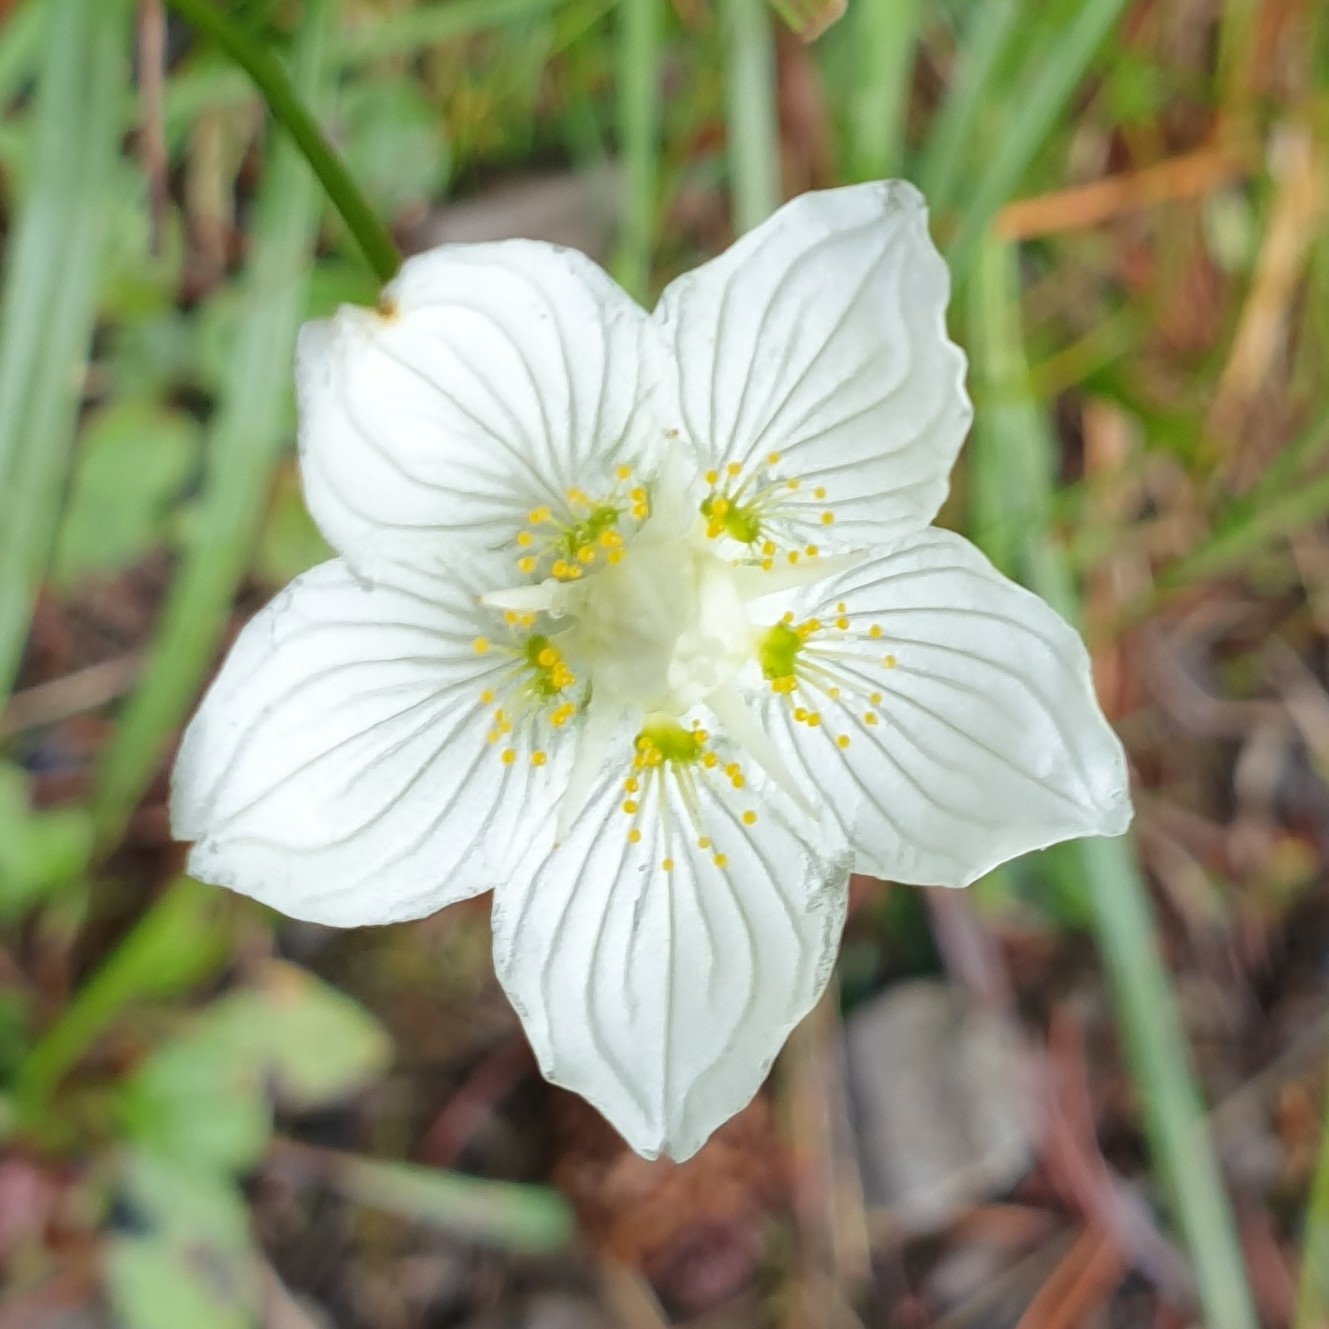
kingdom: Plantae
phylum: Tracheophyta
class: Magnoliopsida
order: Celastrales
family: Parnassiaceae
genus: Parnassia
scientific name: Parnassia palustris
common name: Grass-of-parnassus
